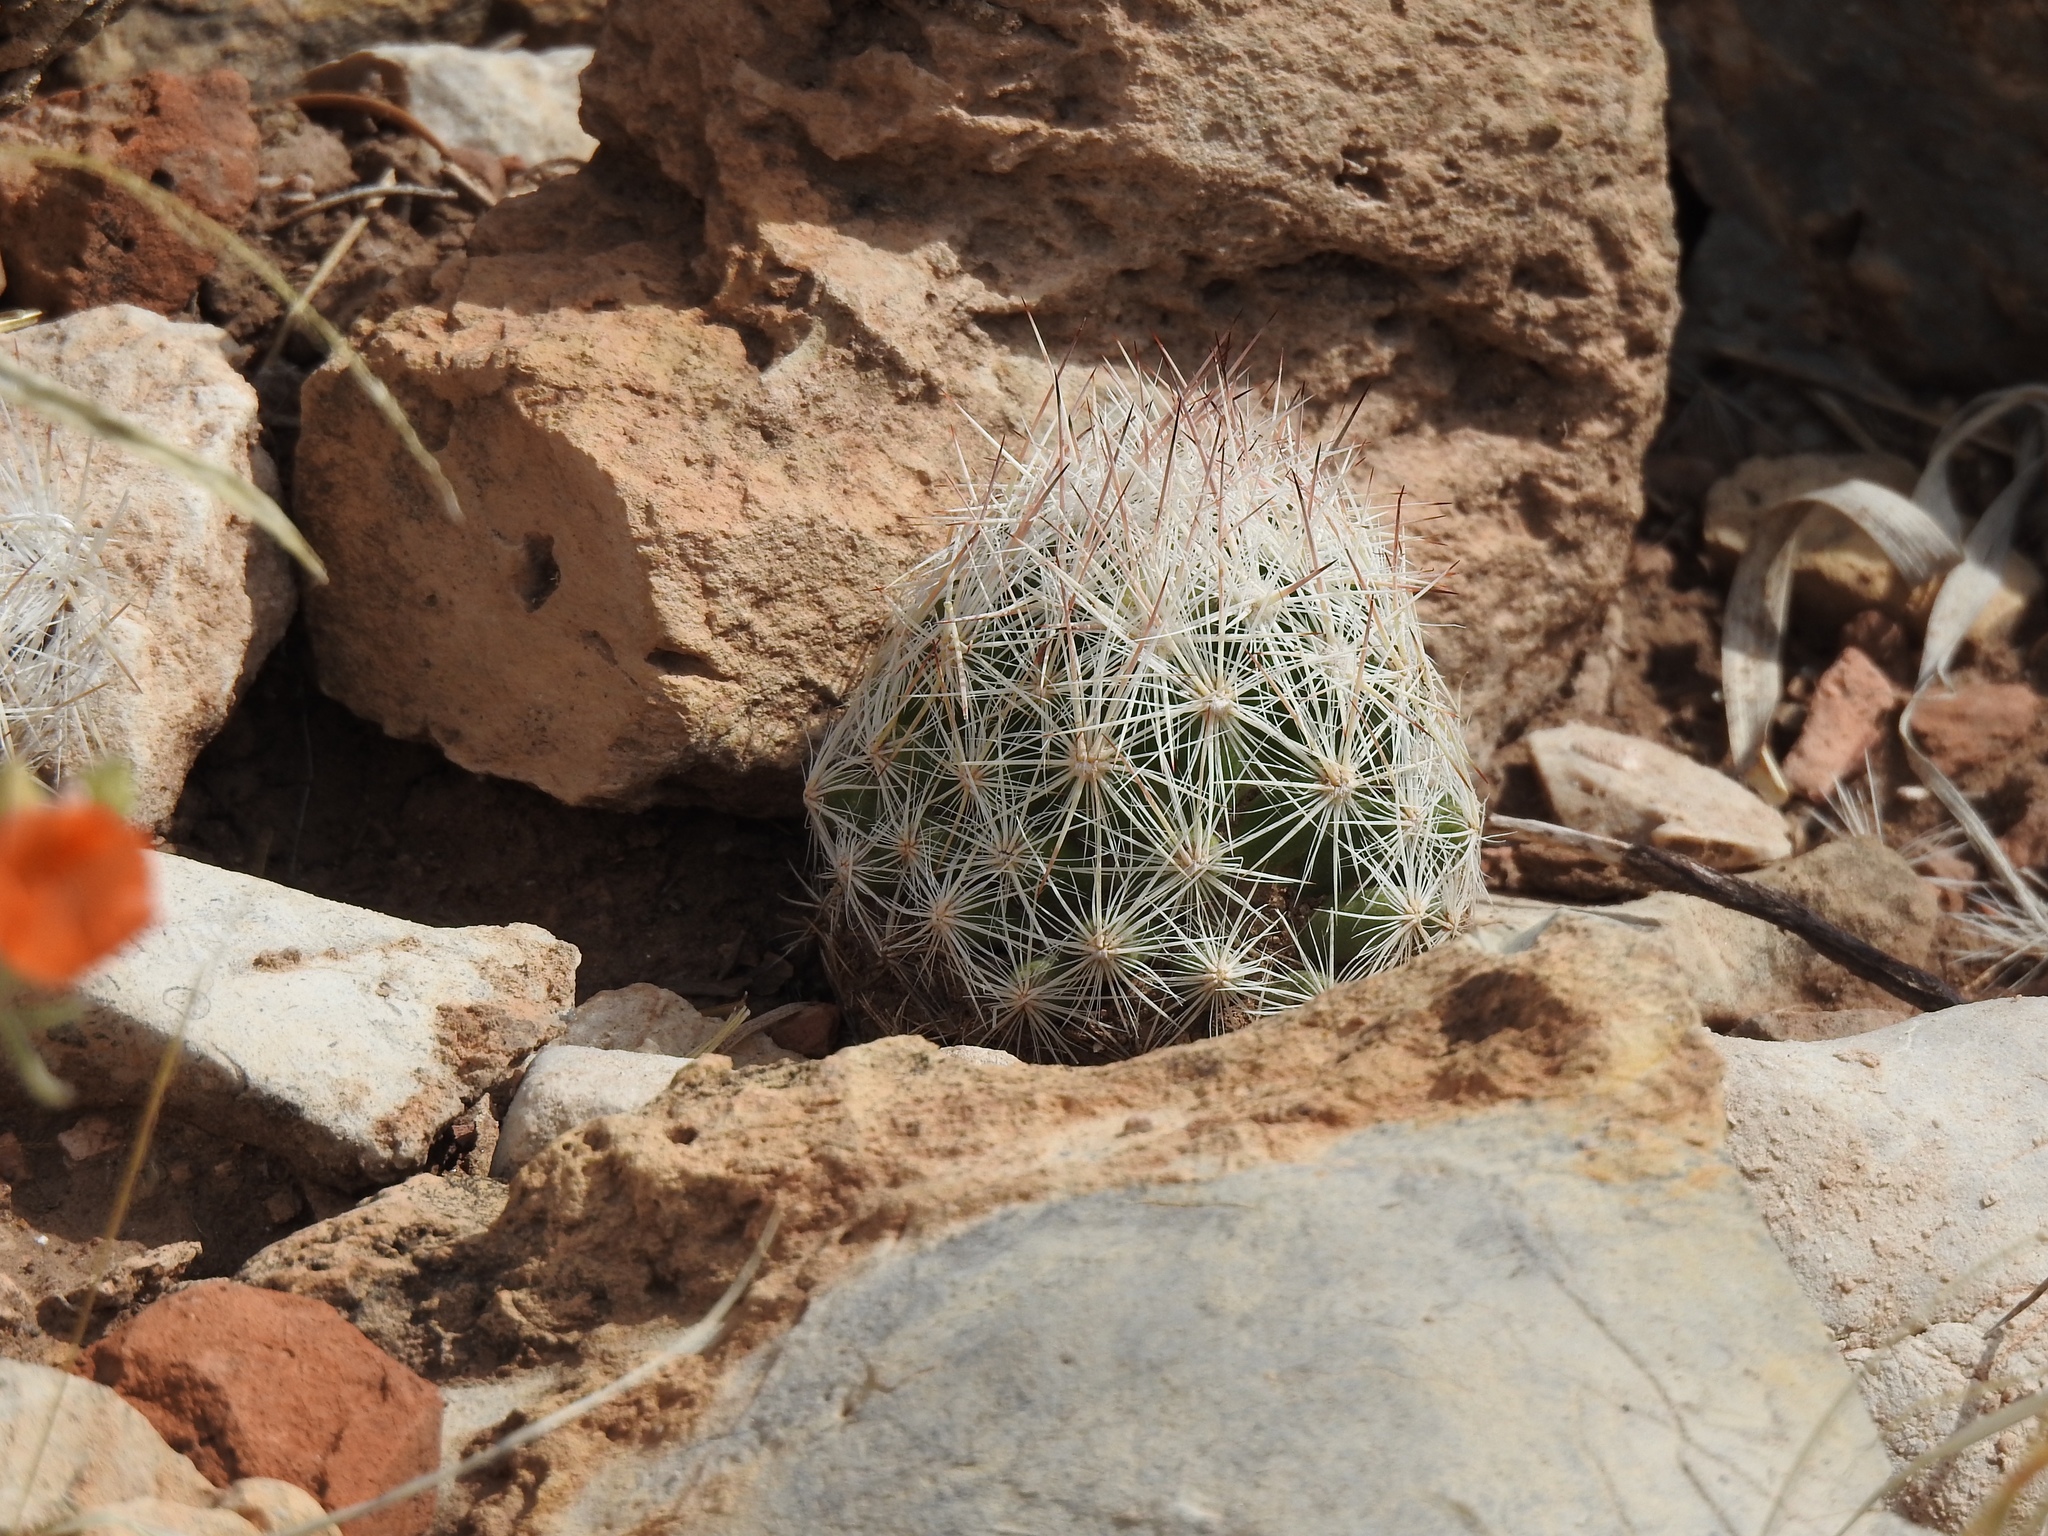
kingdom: Plantae
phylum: Tracheophyta
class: Magnoliopsida
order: Caryophyllales
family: Cactaceae
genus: Pelecyphora
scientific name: Pelecyphora sneedii
